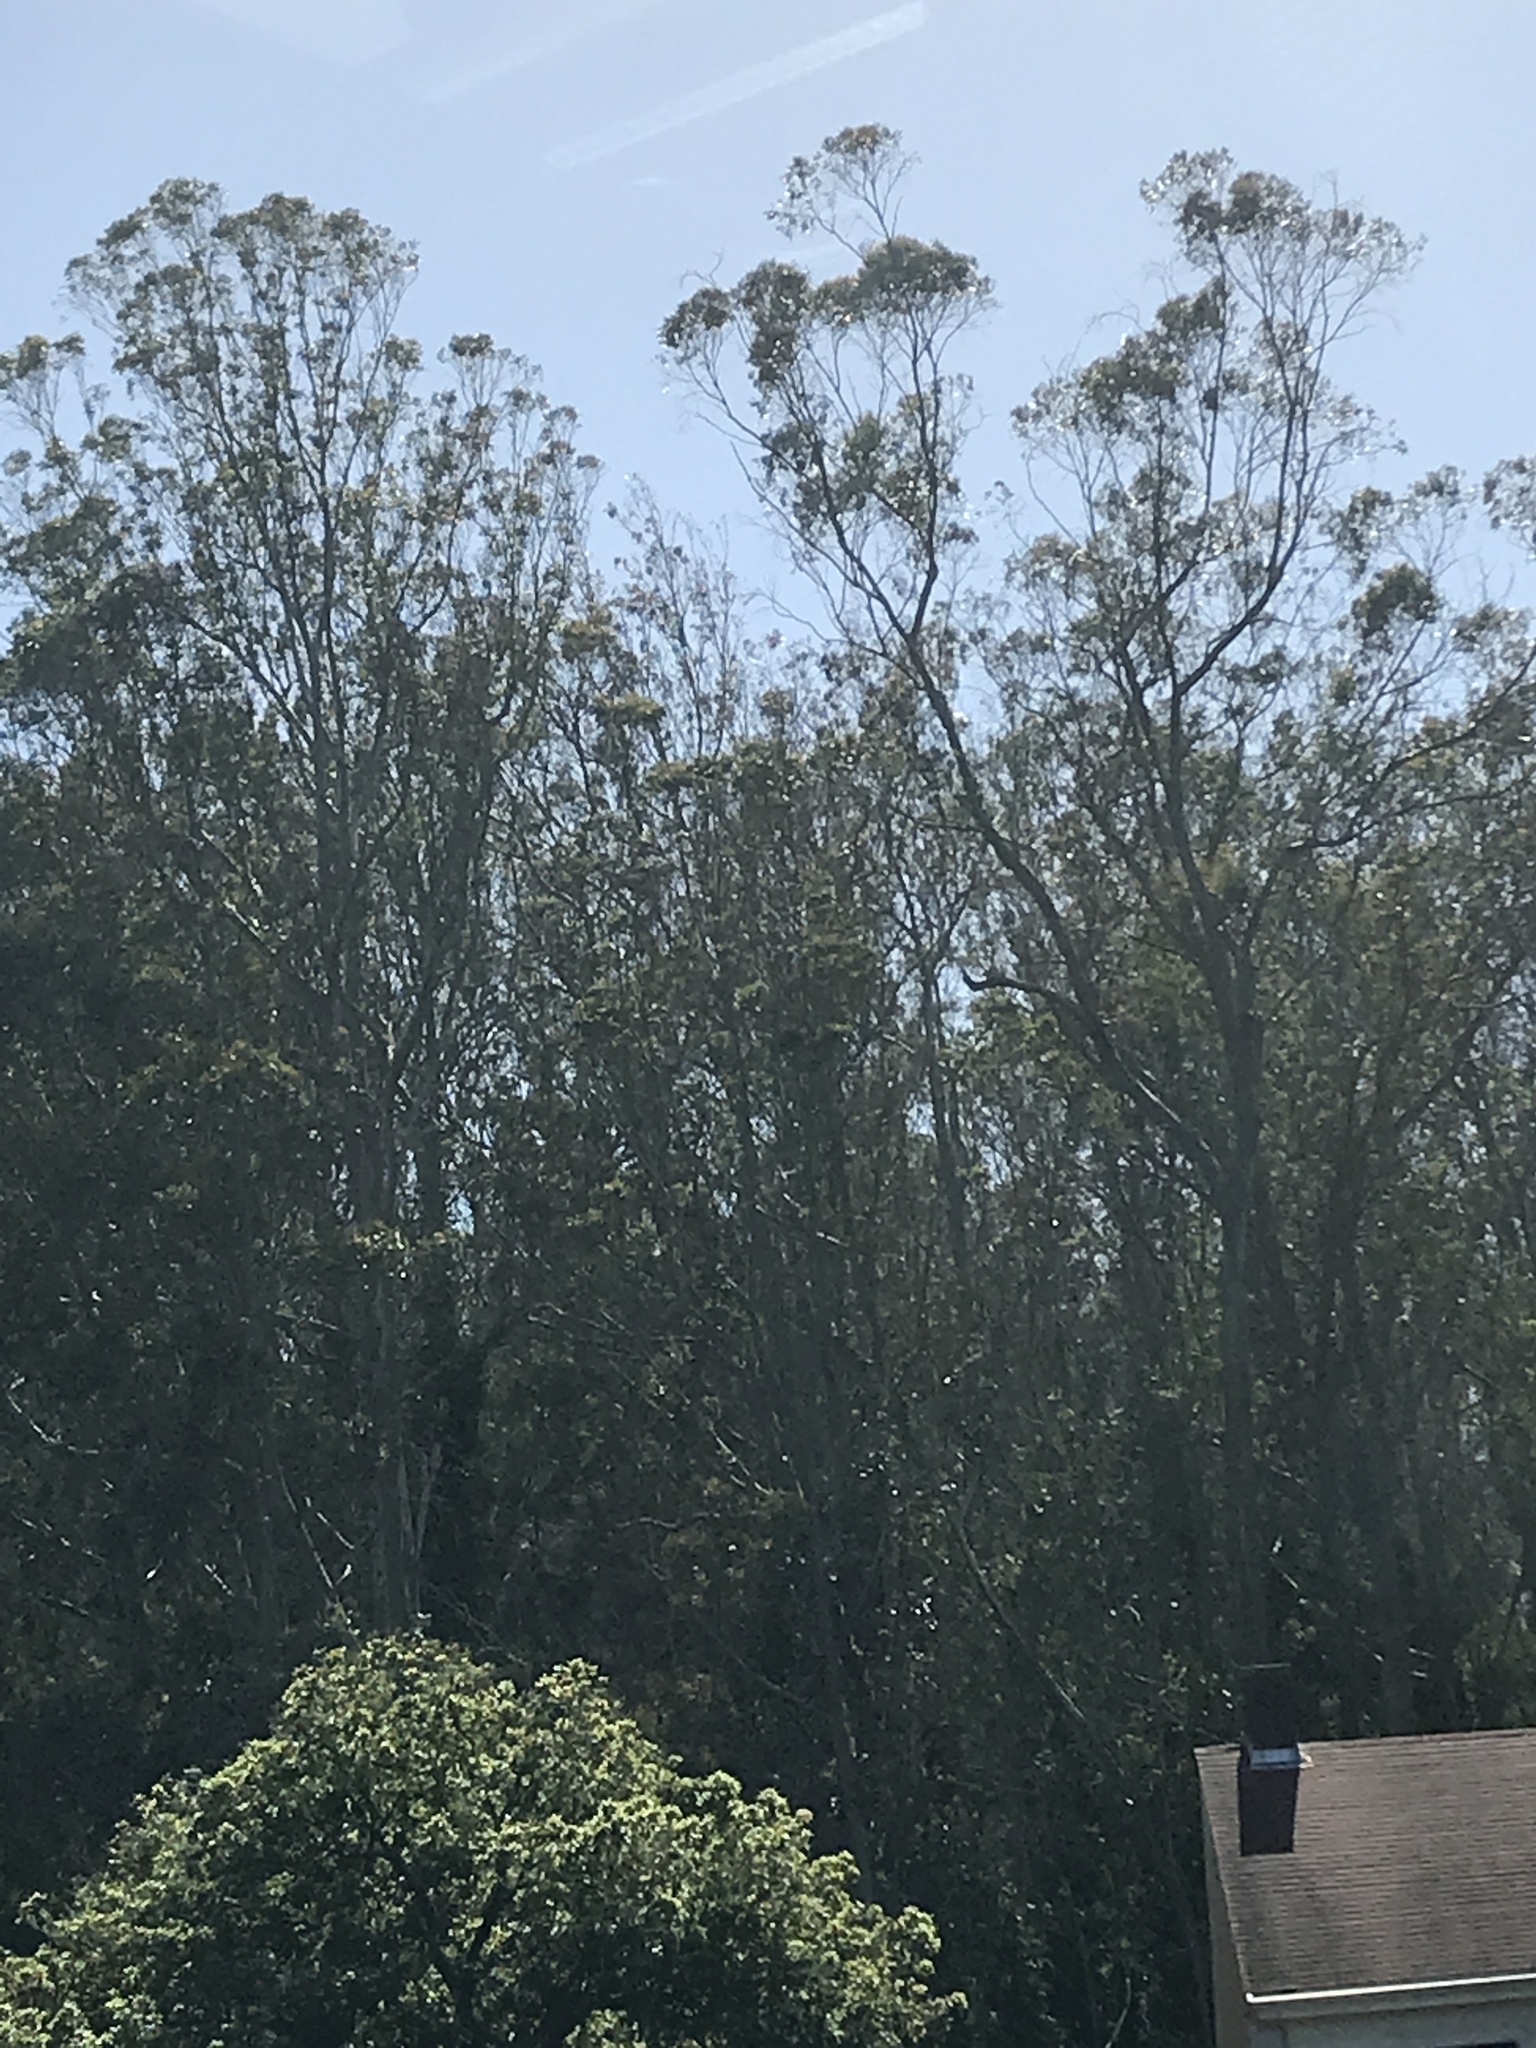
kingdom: Plantae
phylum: Tracheophyta
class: Magnoliopsida
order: Myrtales
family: Myrtaceae
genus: Eucalyptus
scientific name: Eucalyptus globulus
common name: Southern blue-gum
